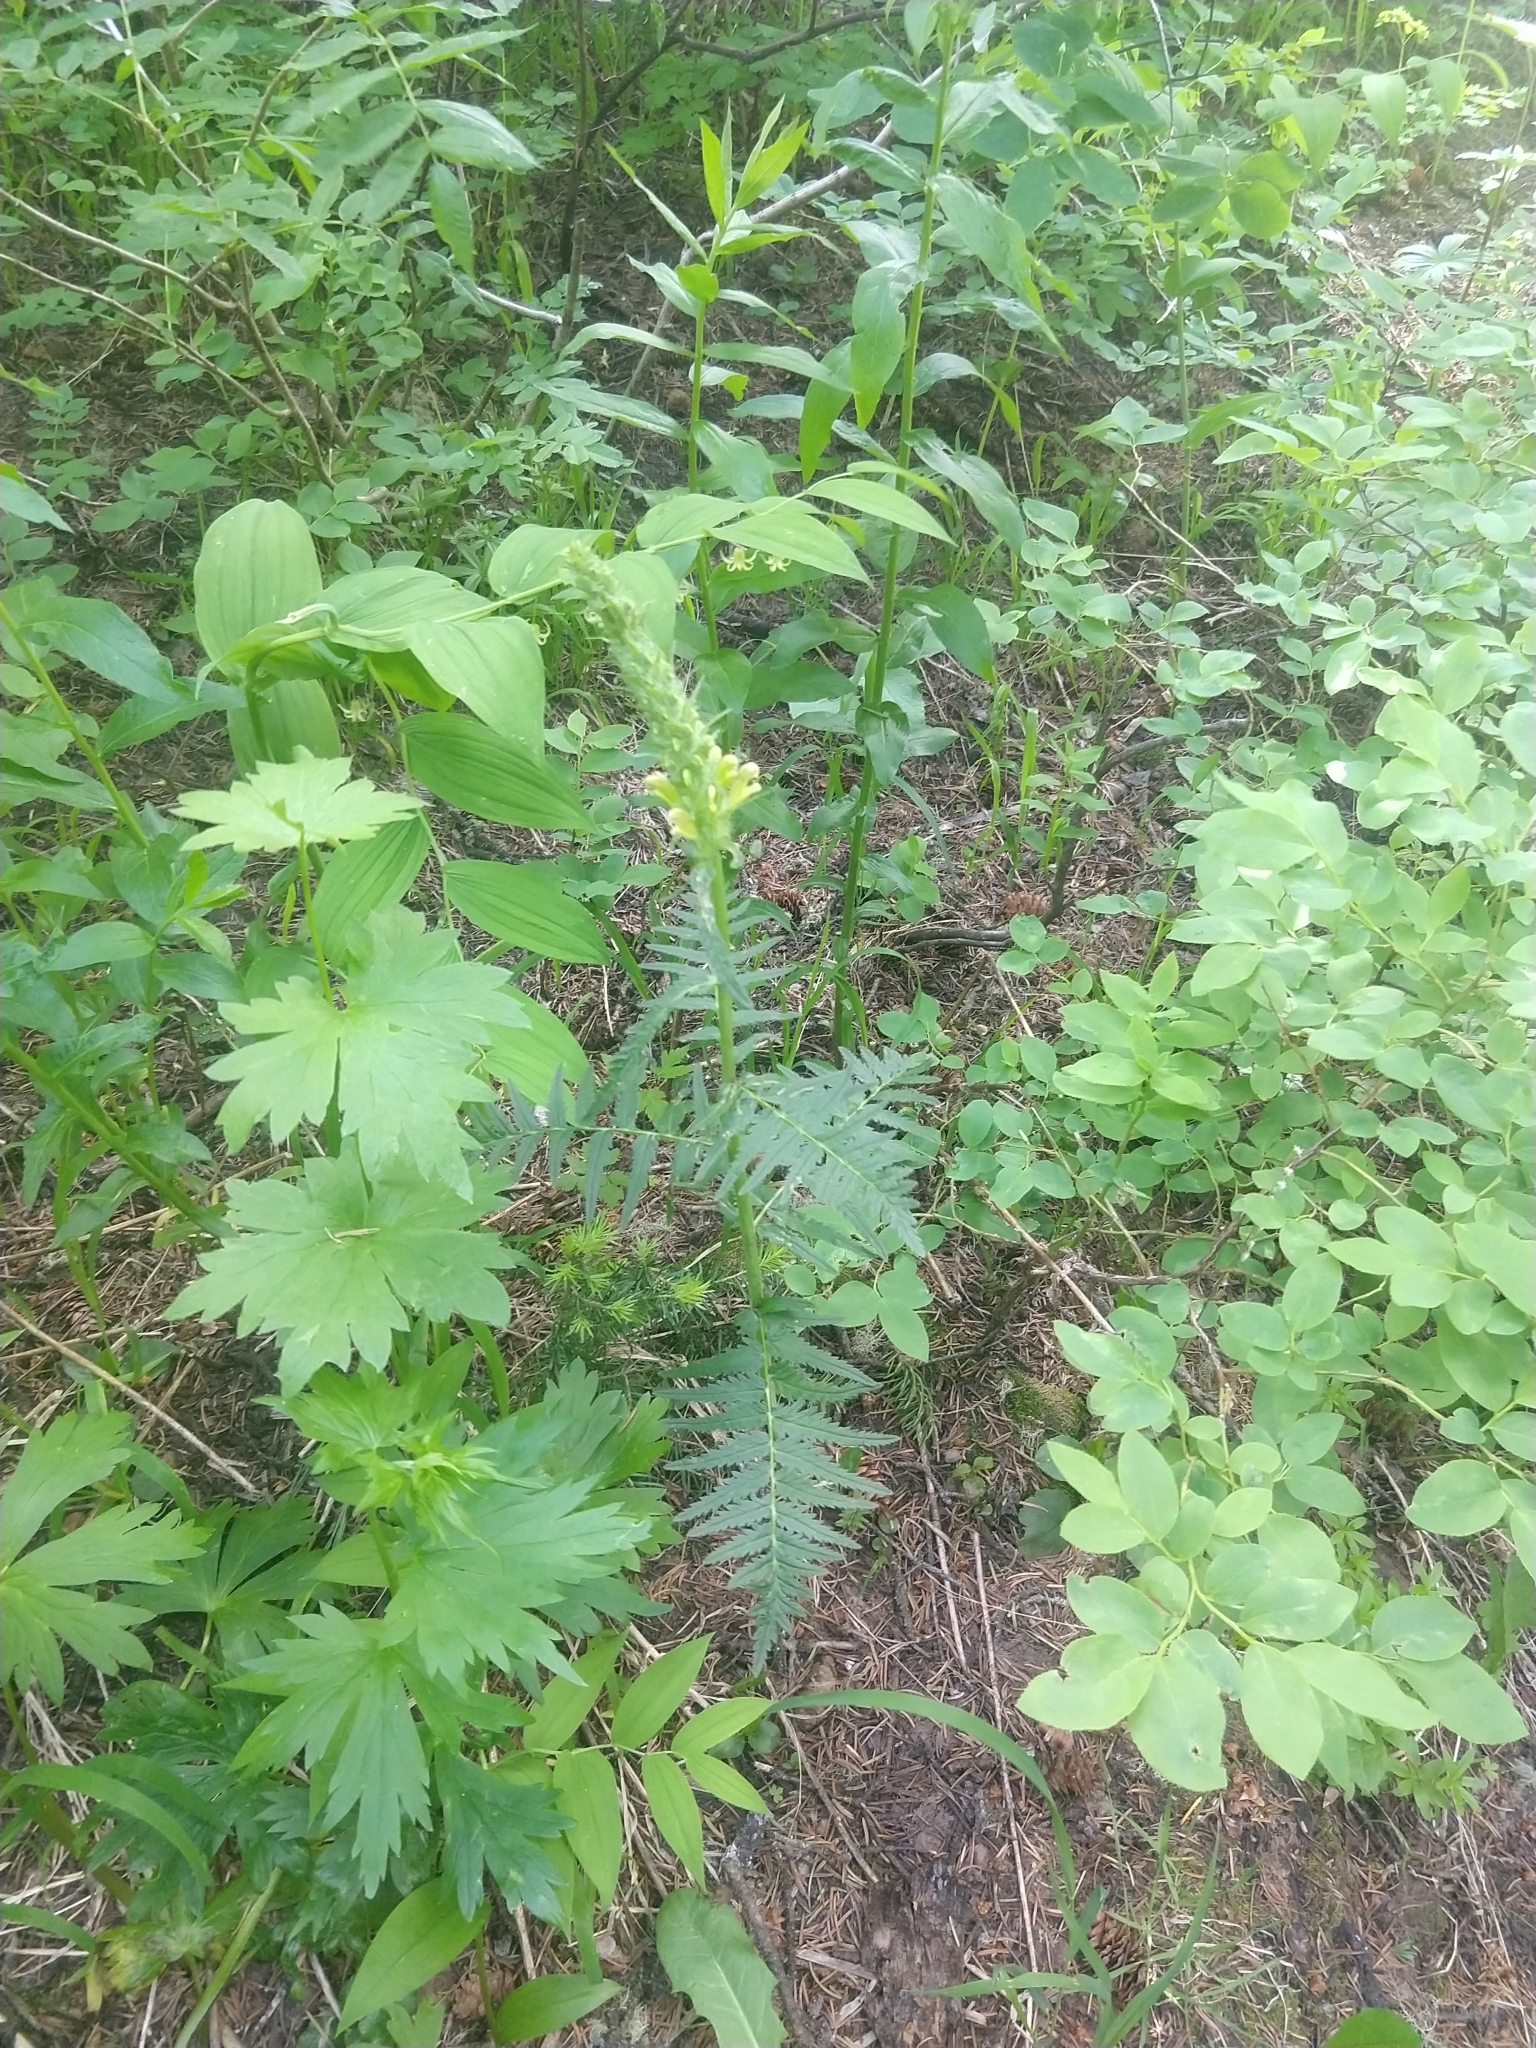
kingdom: Plantae
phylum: Tracheophyta
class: Magnoliopsida
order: Lamiales
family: Orobanchaceae
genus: Pedicularis
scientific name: Pedicularis bracteosa
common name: Bracted lousewort
